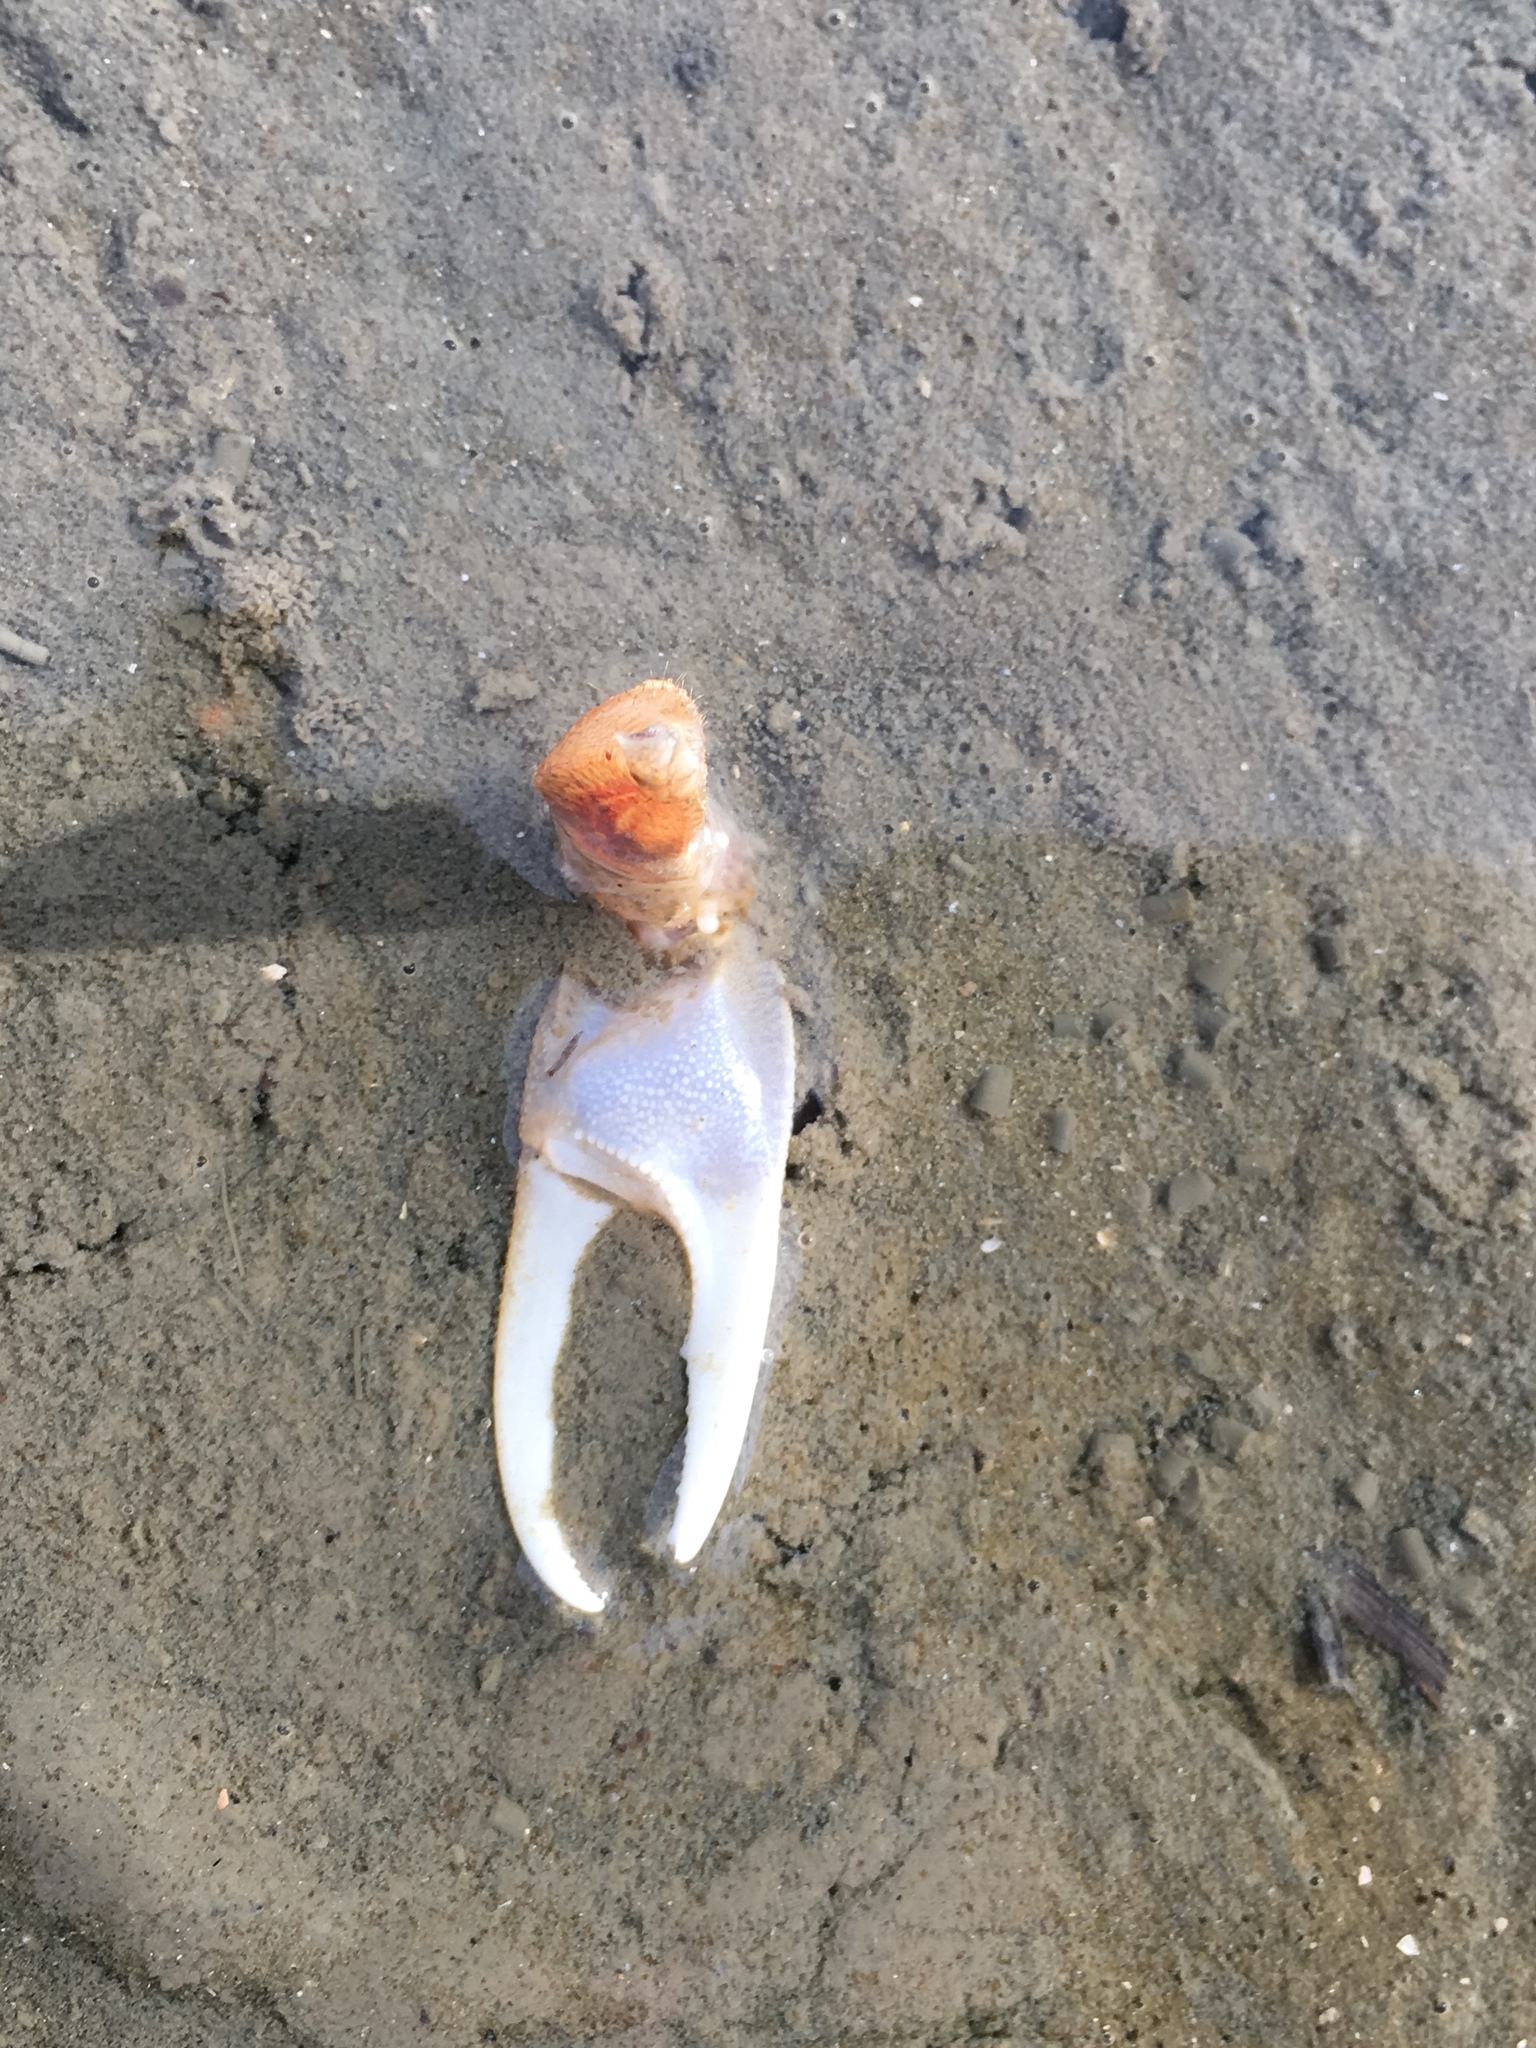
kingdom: Animalia
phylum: Arthropoda
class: Malacostraca
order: Decapoda
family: Ocypodidae
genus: Leptuca
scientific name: Leptuca pugilator
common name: Atlantic sand fiddler crab
